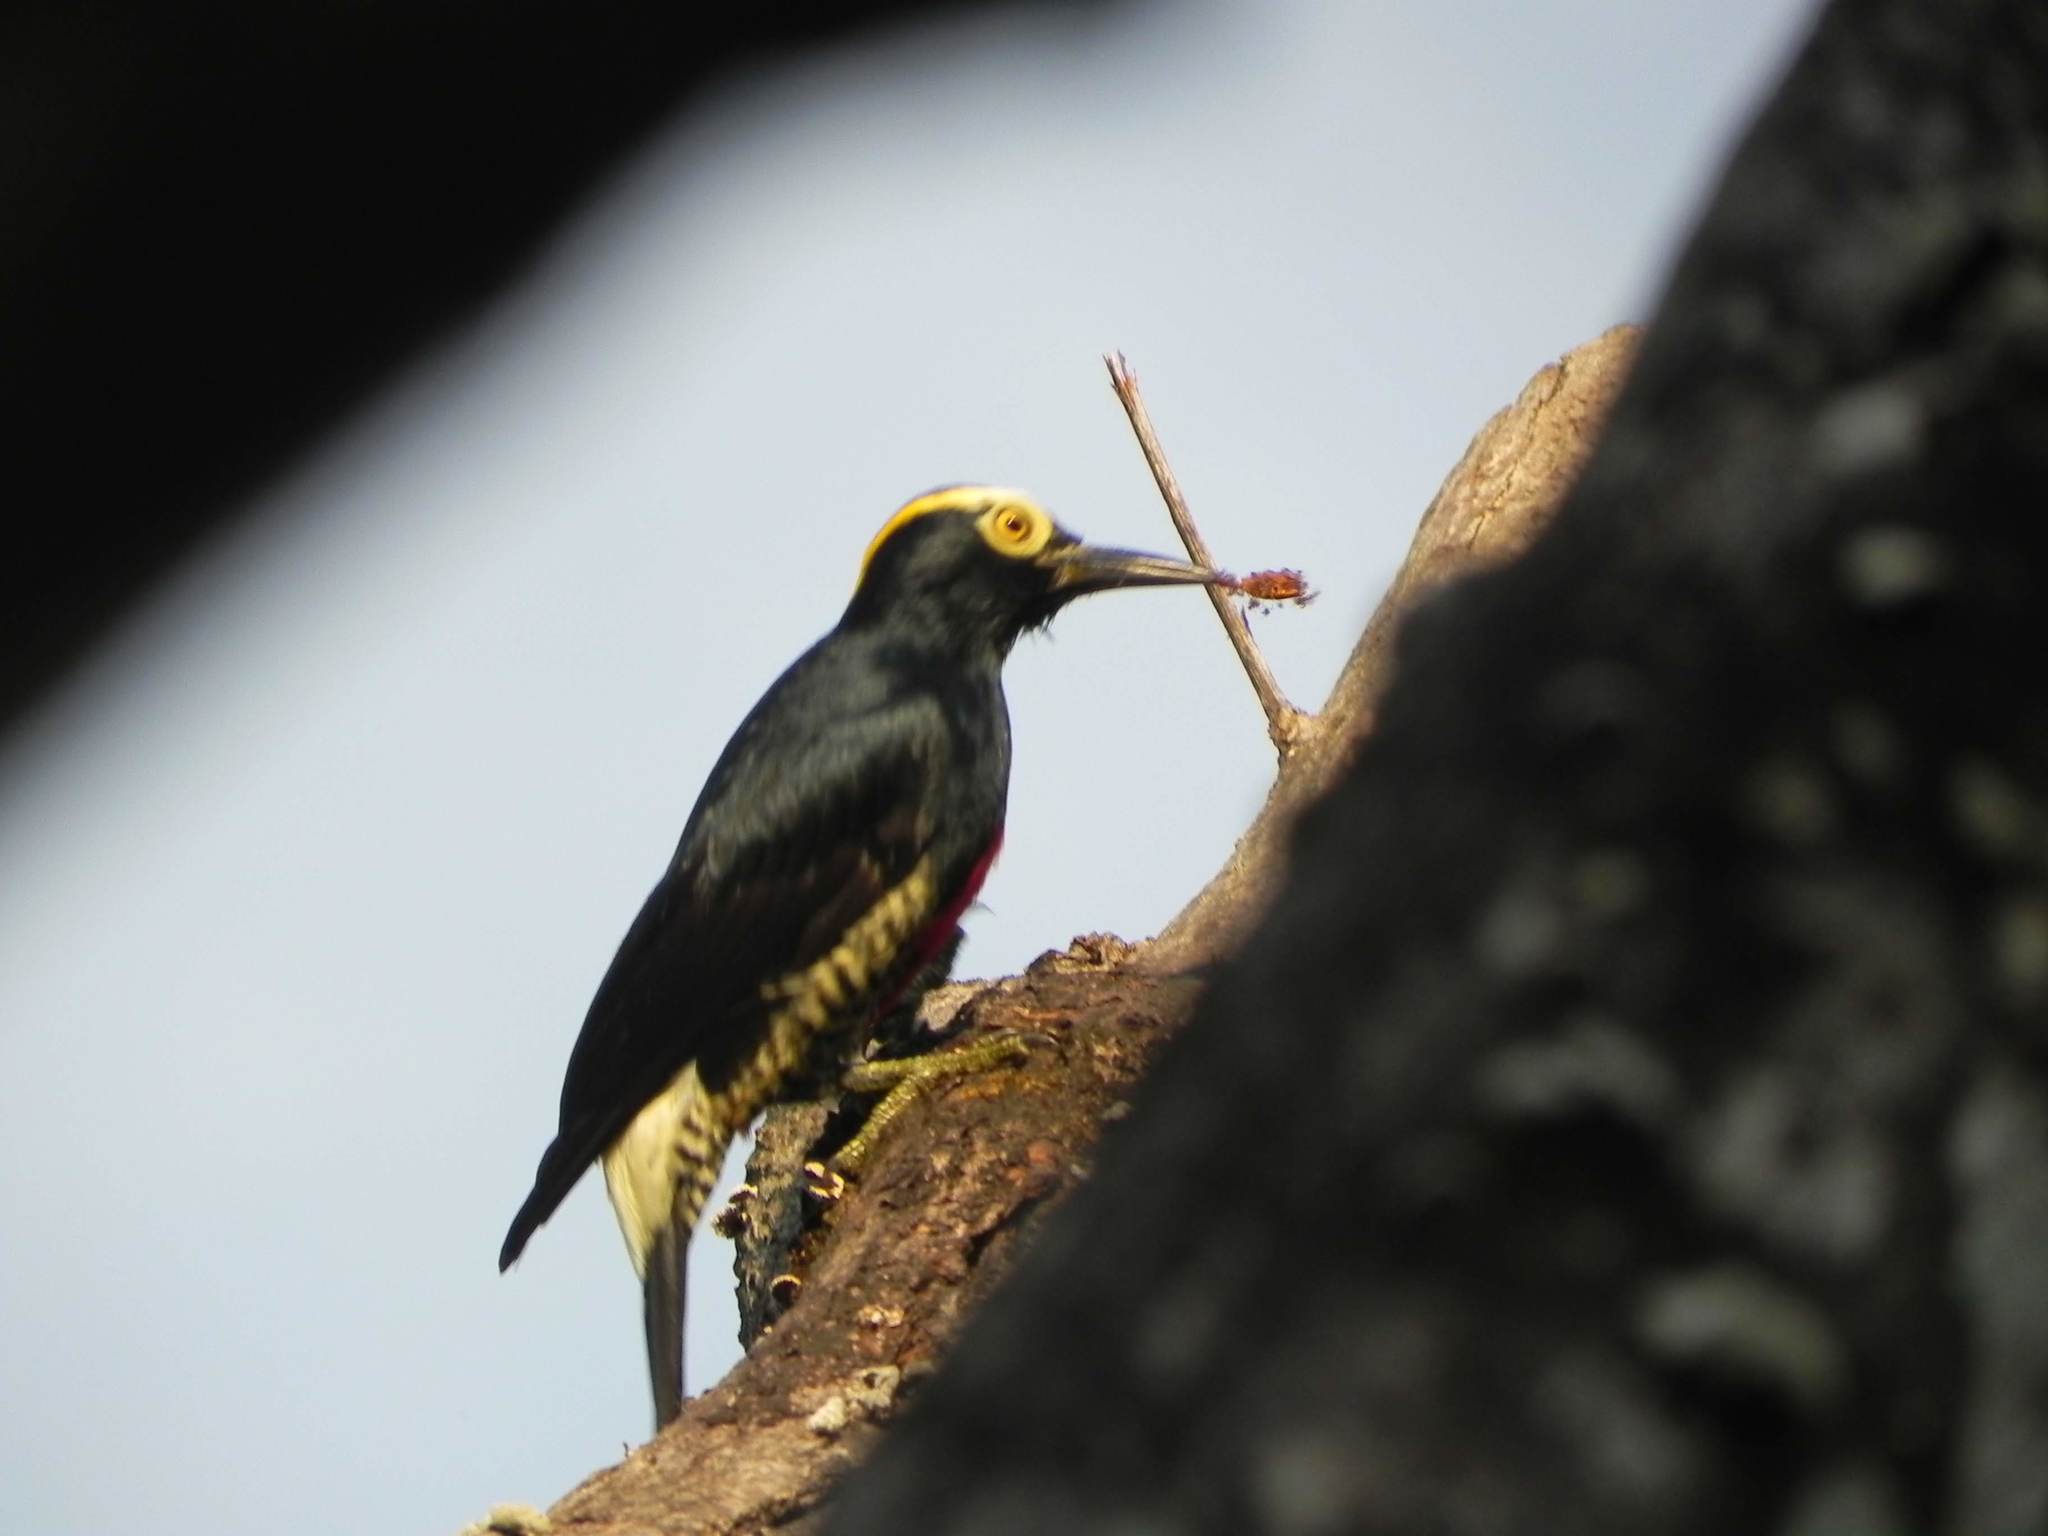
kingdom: Animalia
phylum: Chordata
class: Aves
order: Piciformes
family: Picidae
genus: Melanerpes
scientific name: Melanerpes cruentatus
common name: Yellow-tufted woodpecker
